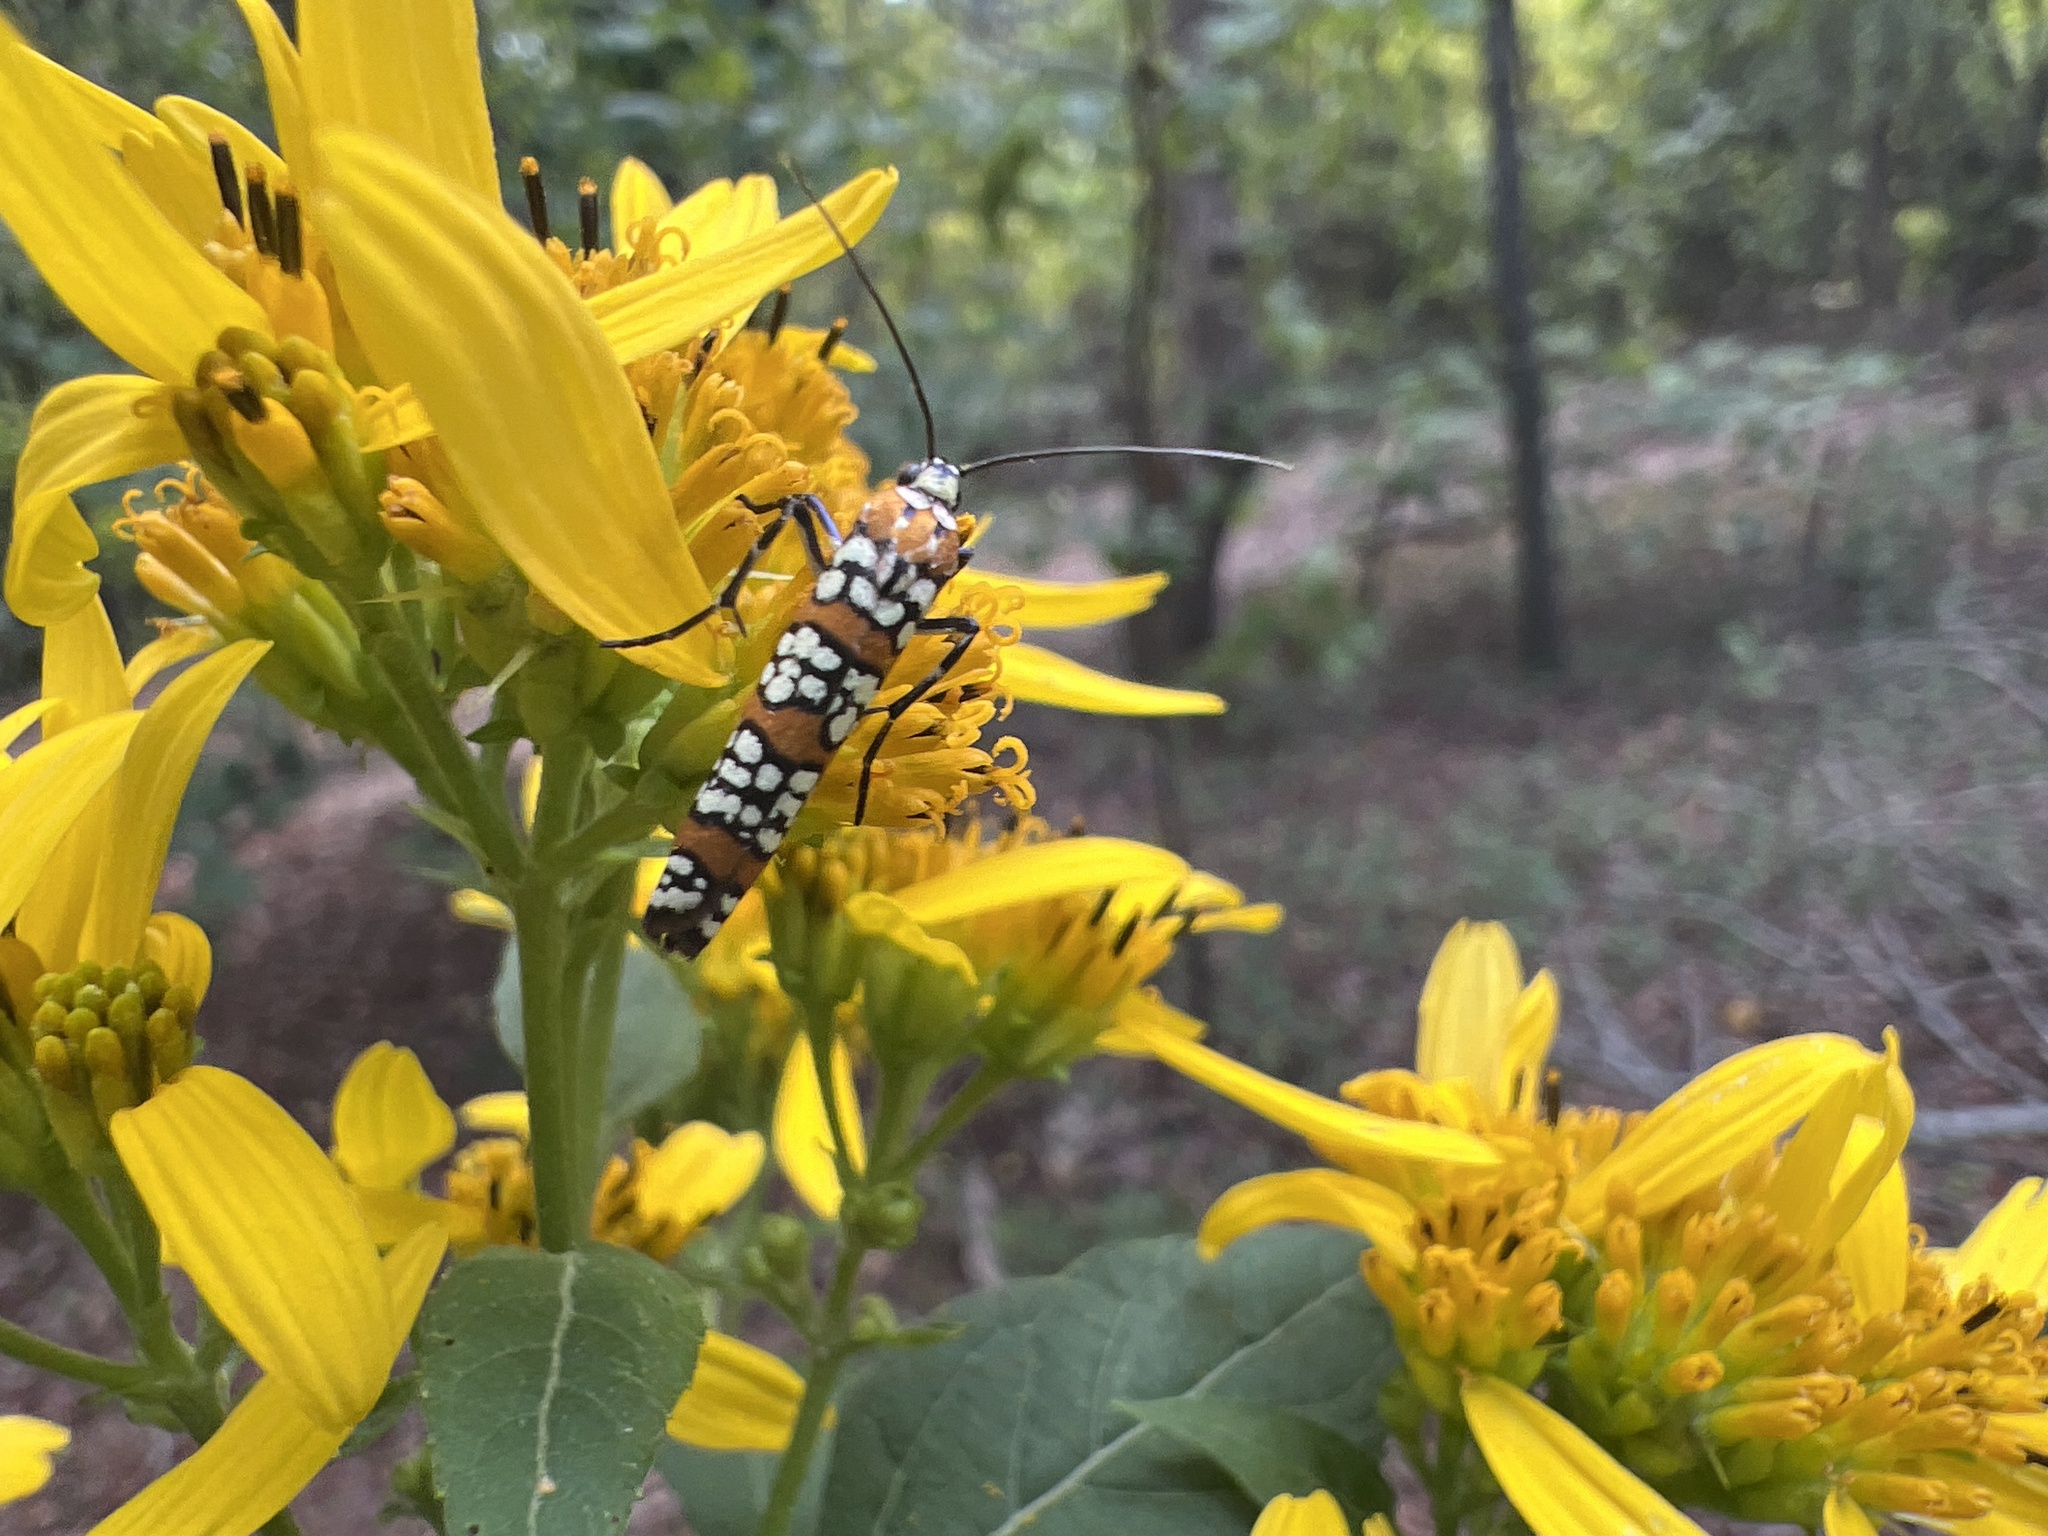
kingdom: Animalia
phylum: Arthropoda
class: Insecta
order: Lepidoptera
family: Attevidae
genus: Atteva
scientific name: Atteva punctella
